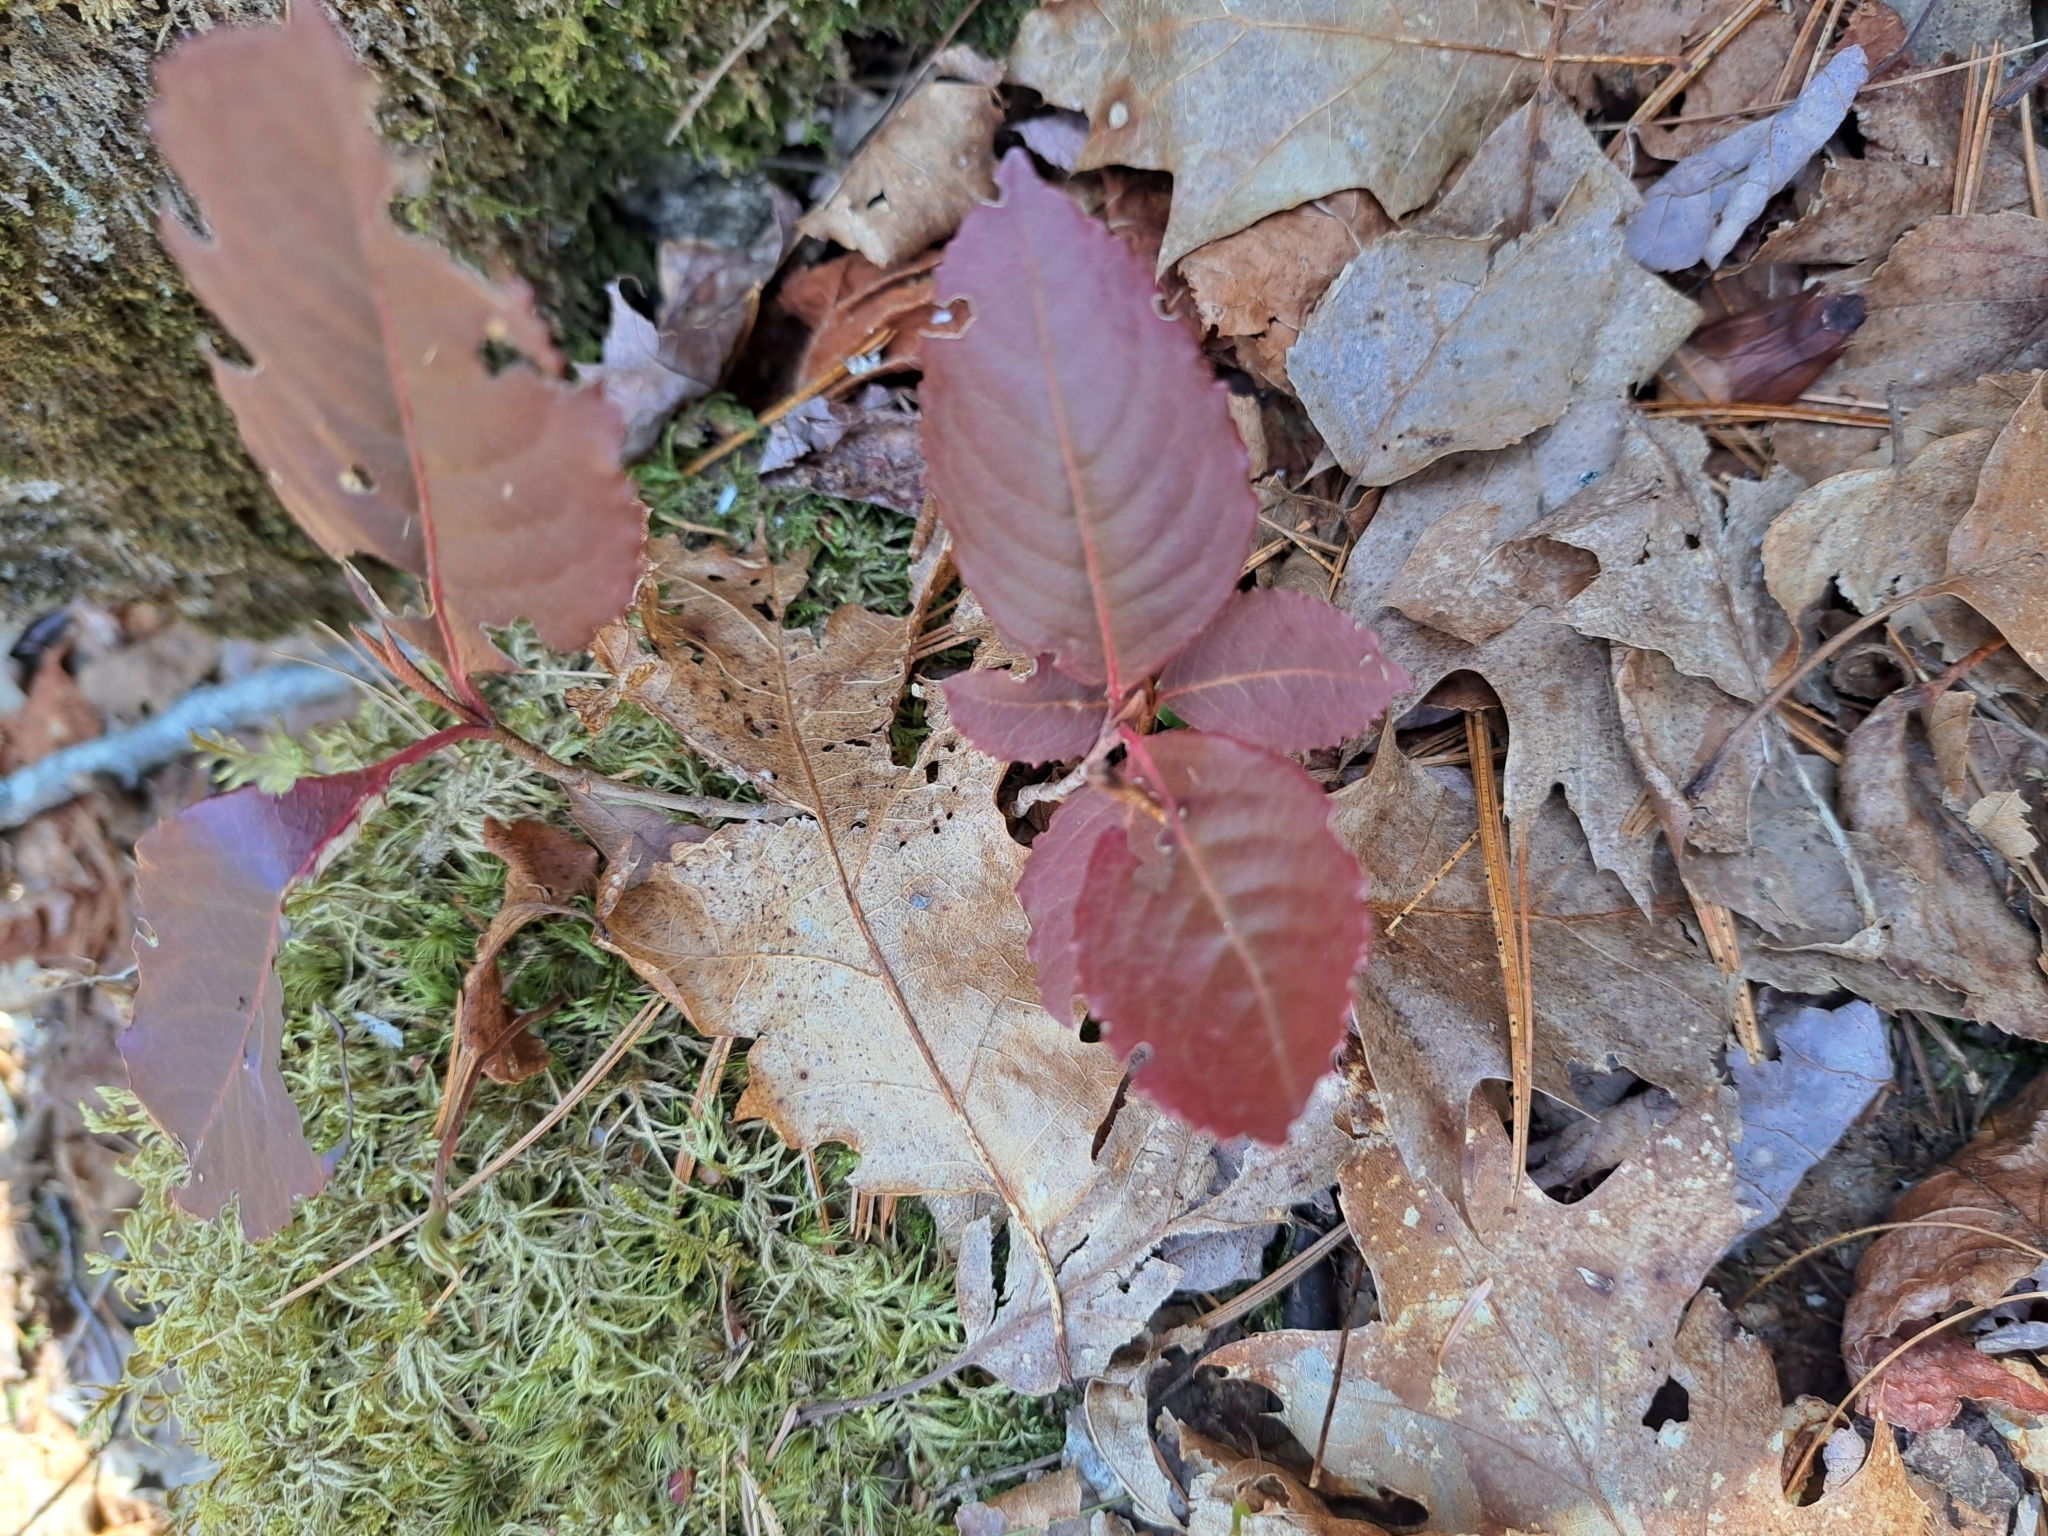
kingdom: Plantae
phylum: Tracheophyta
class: Magnoliopsida
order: Dipsacales
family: Viburnaceae
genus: Viburnum
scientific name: Viburnum cassinoides
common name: Swamp haw
